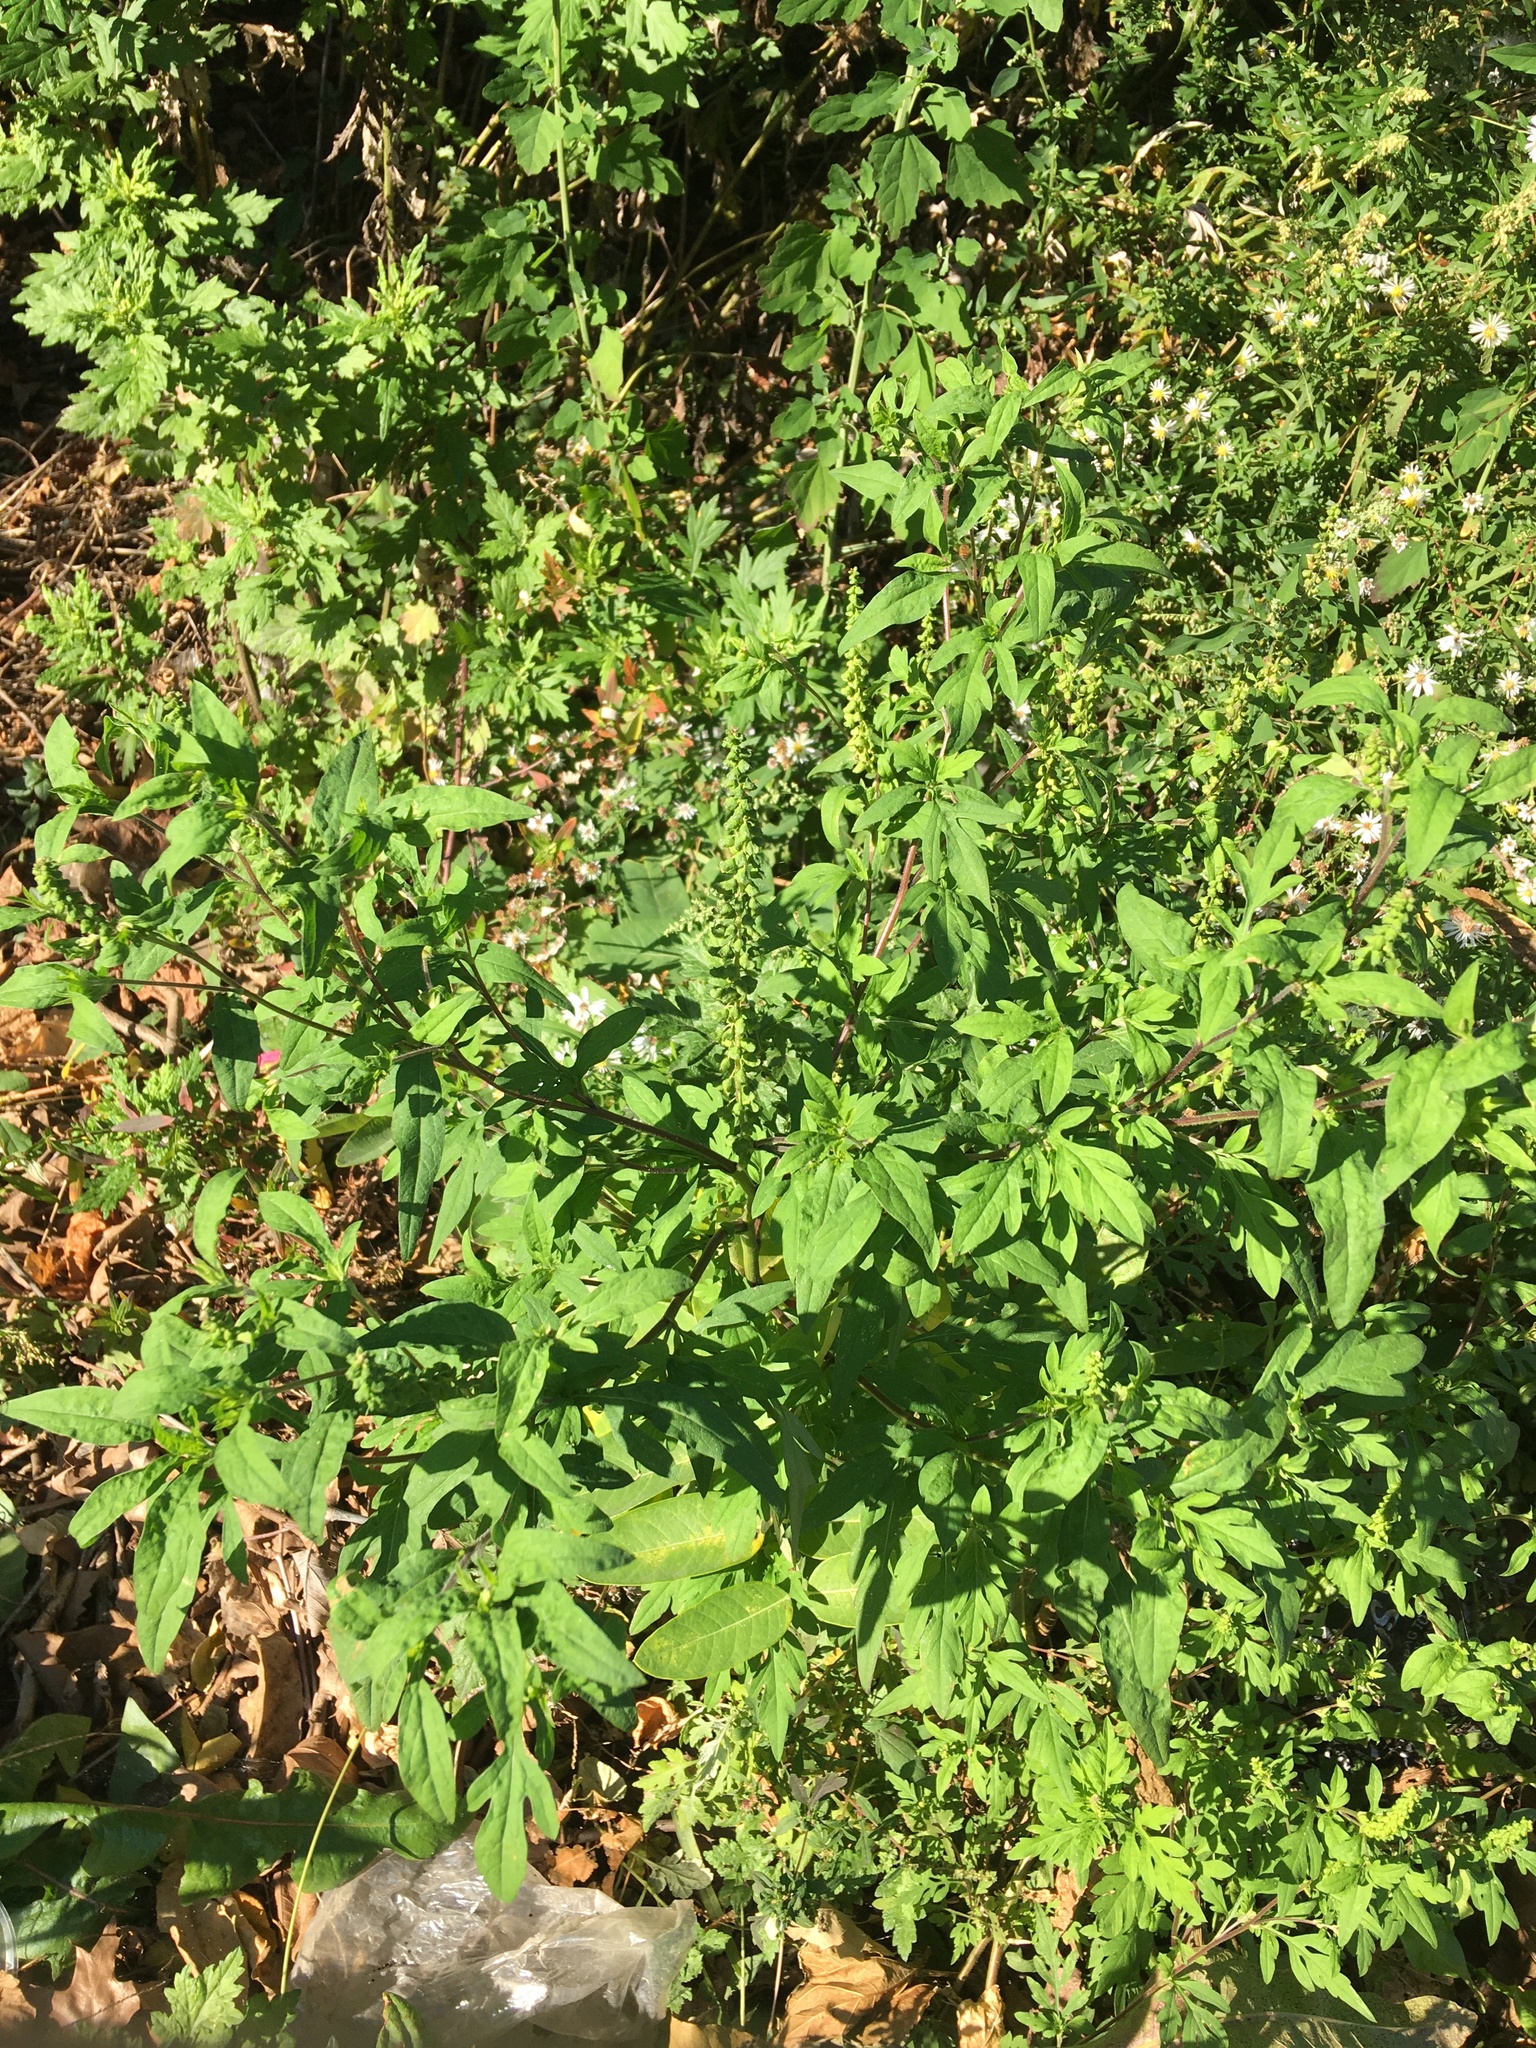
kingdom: Plantae
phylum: Tracheophyta
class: Magnoliopsida
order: Asterales
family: Asteraceae
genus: Ambrosia
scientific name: Ambrosia artemisiifolia
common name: Annual ragweed
